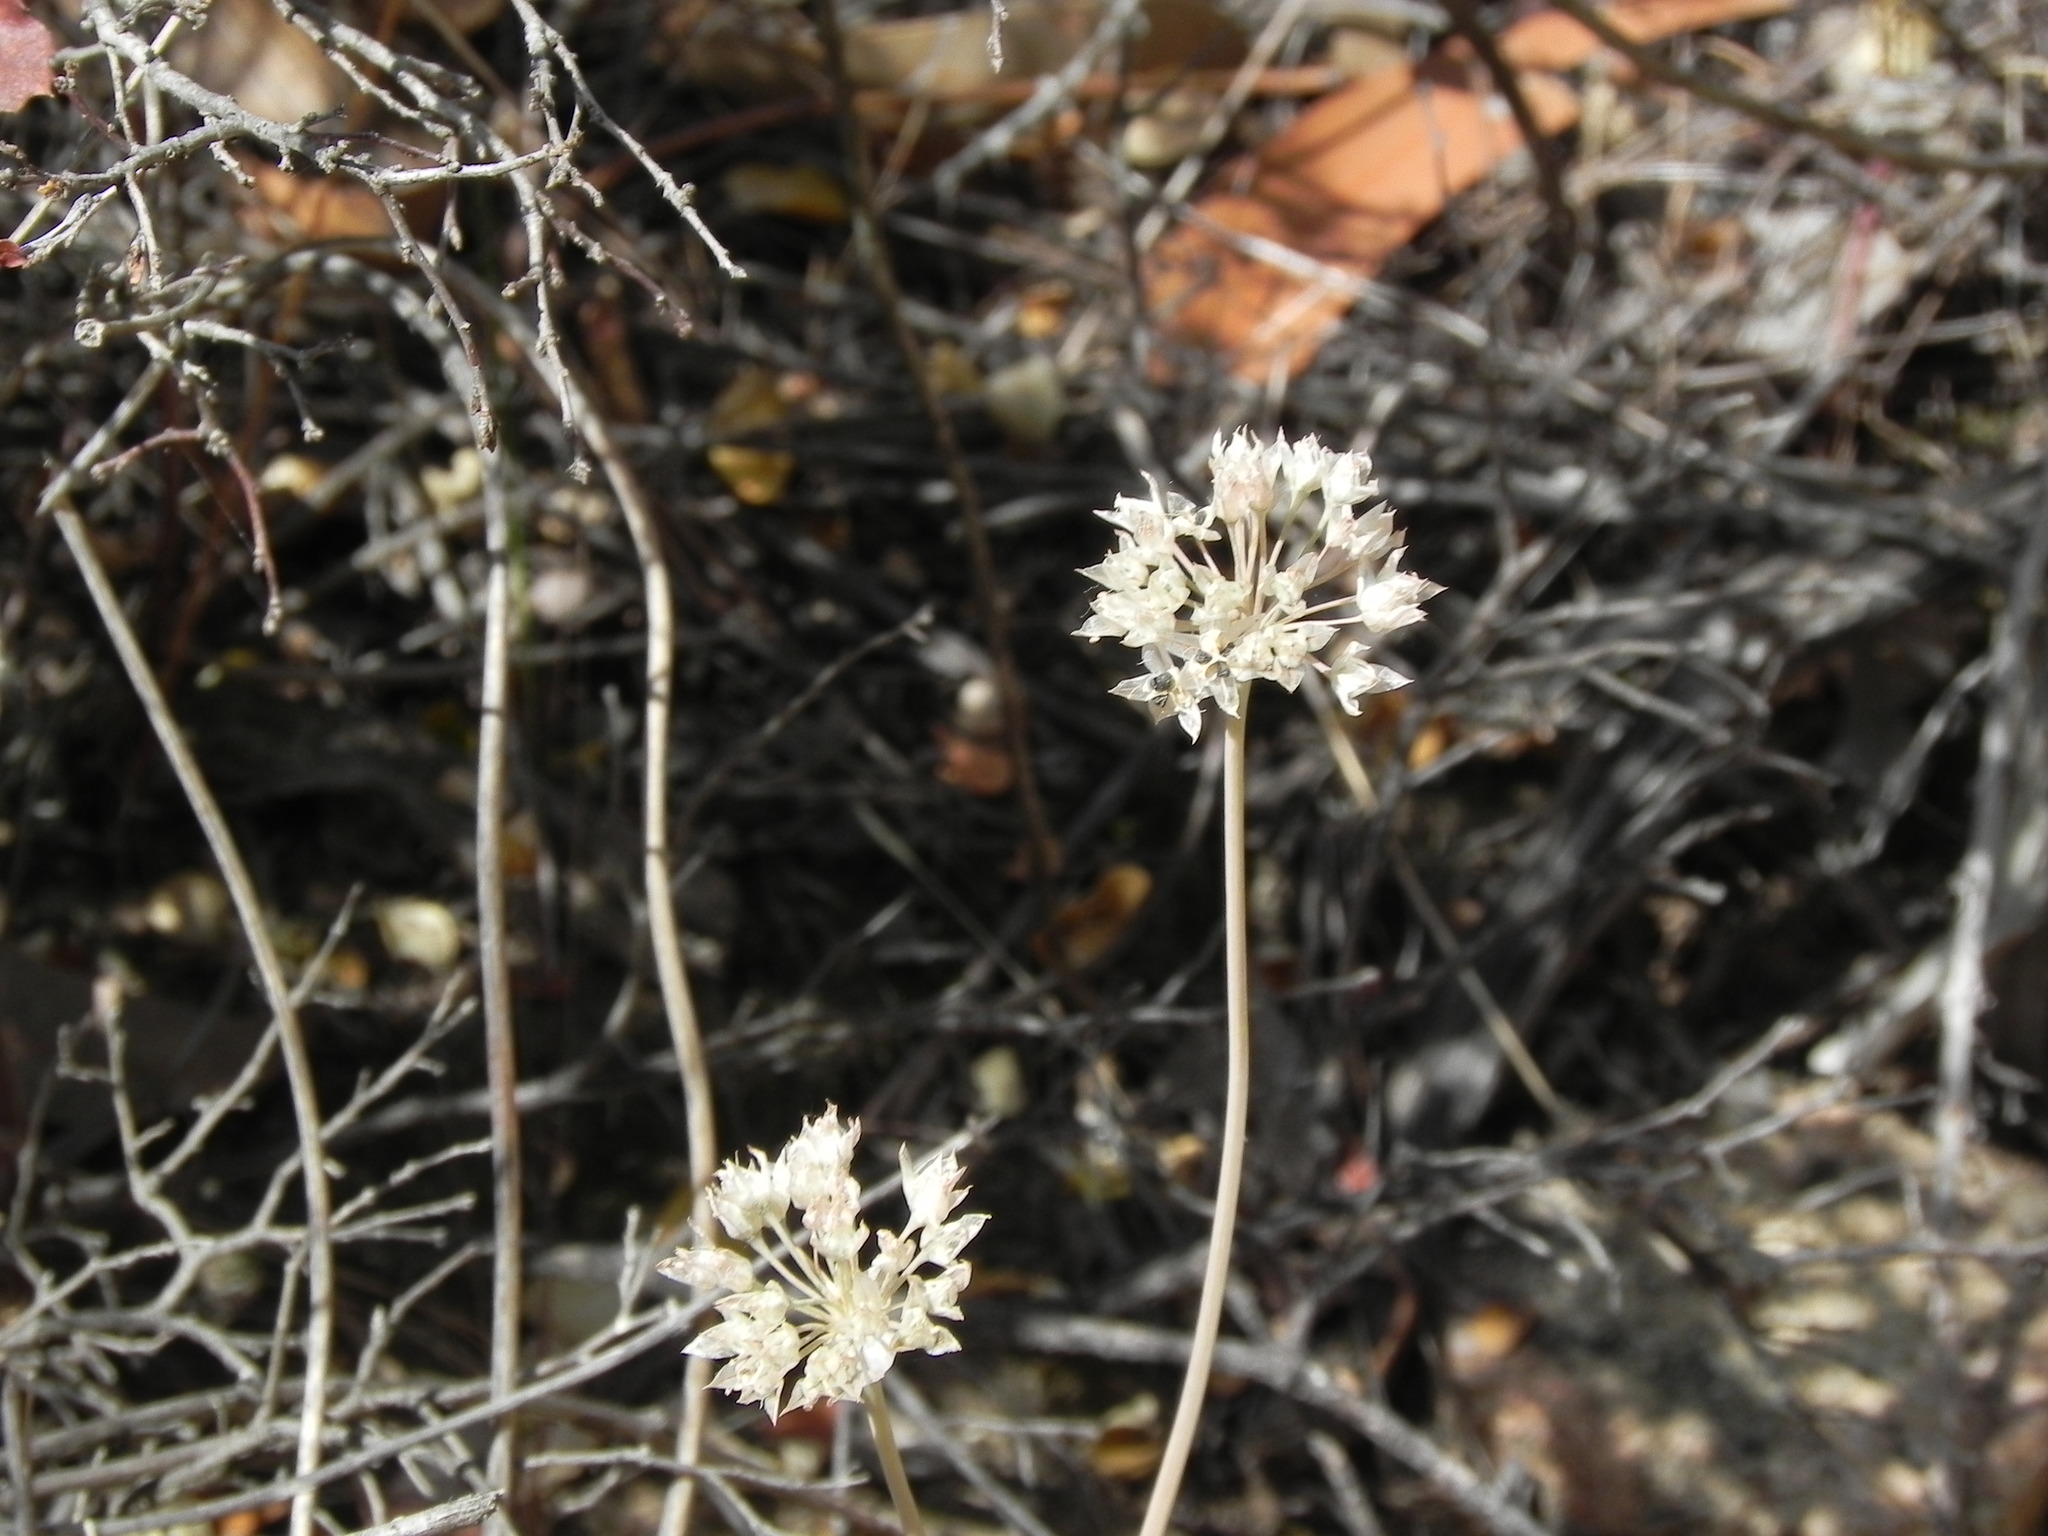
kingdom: Plantae
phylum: Tracheophyta
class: Liliopsida
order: Asparagales
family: Amaryllidaceae
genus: Allium
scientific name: Allium haematochiton
